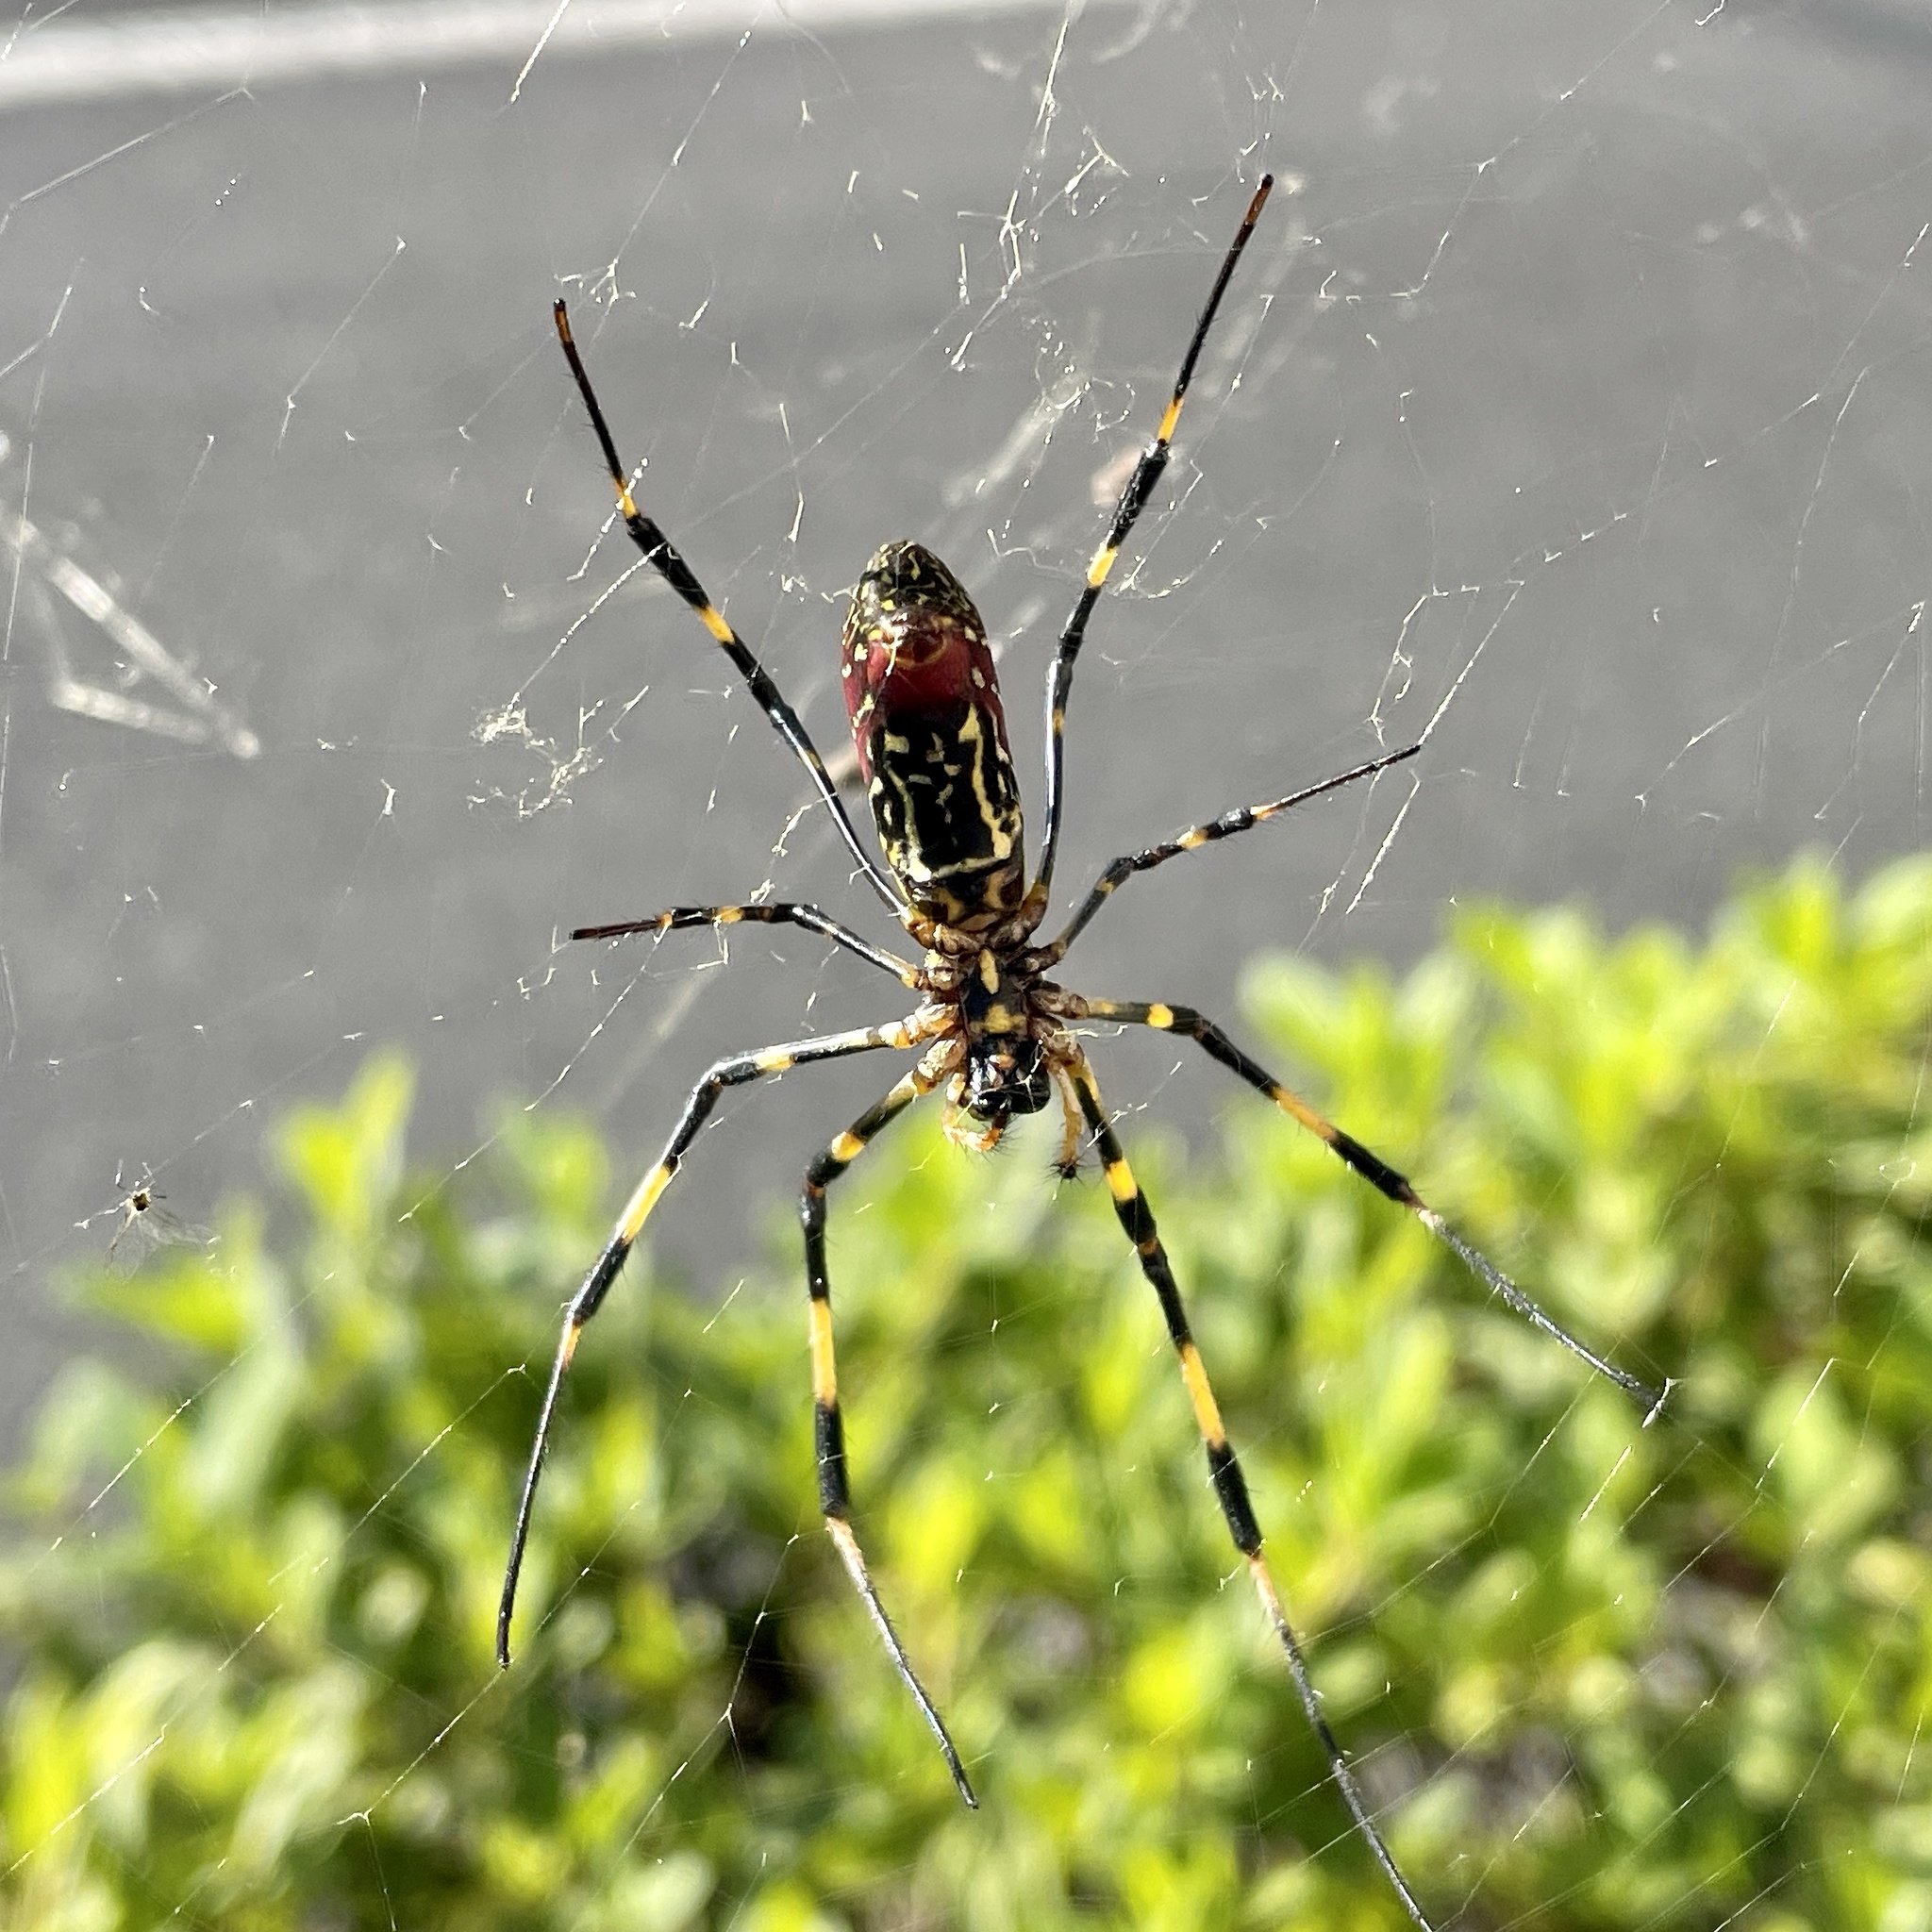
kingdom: Animalia
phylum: Arthropoda
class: Arachnida
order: Araneae
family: Araneidae
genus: Trichonephila
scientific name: Trichonephila clavata
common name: Jorō spider
